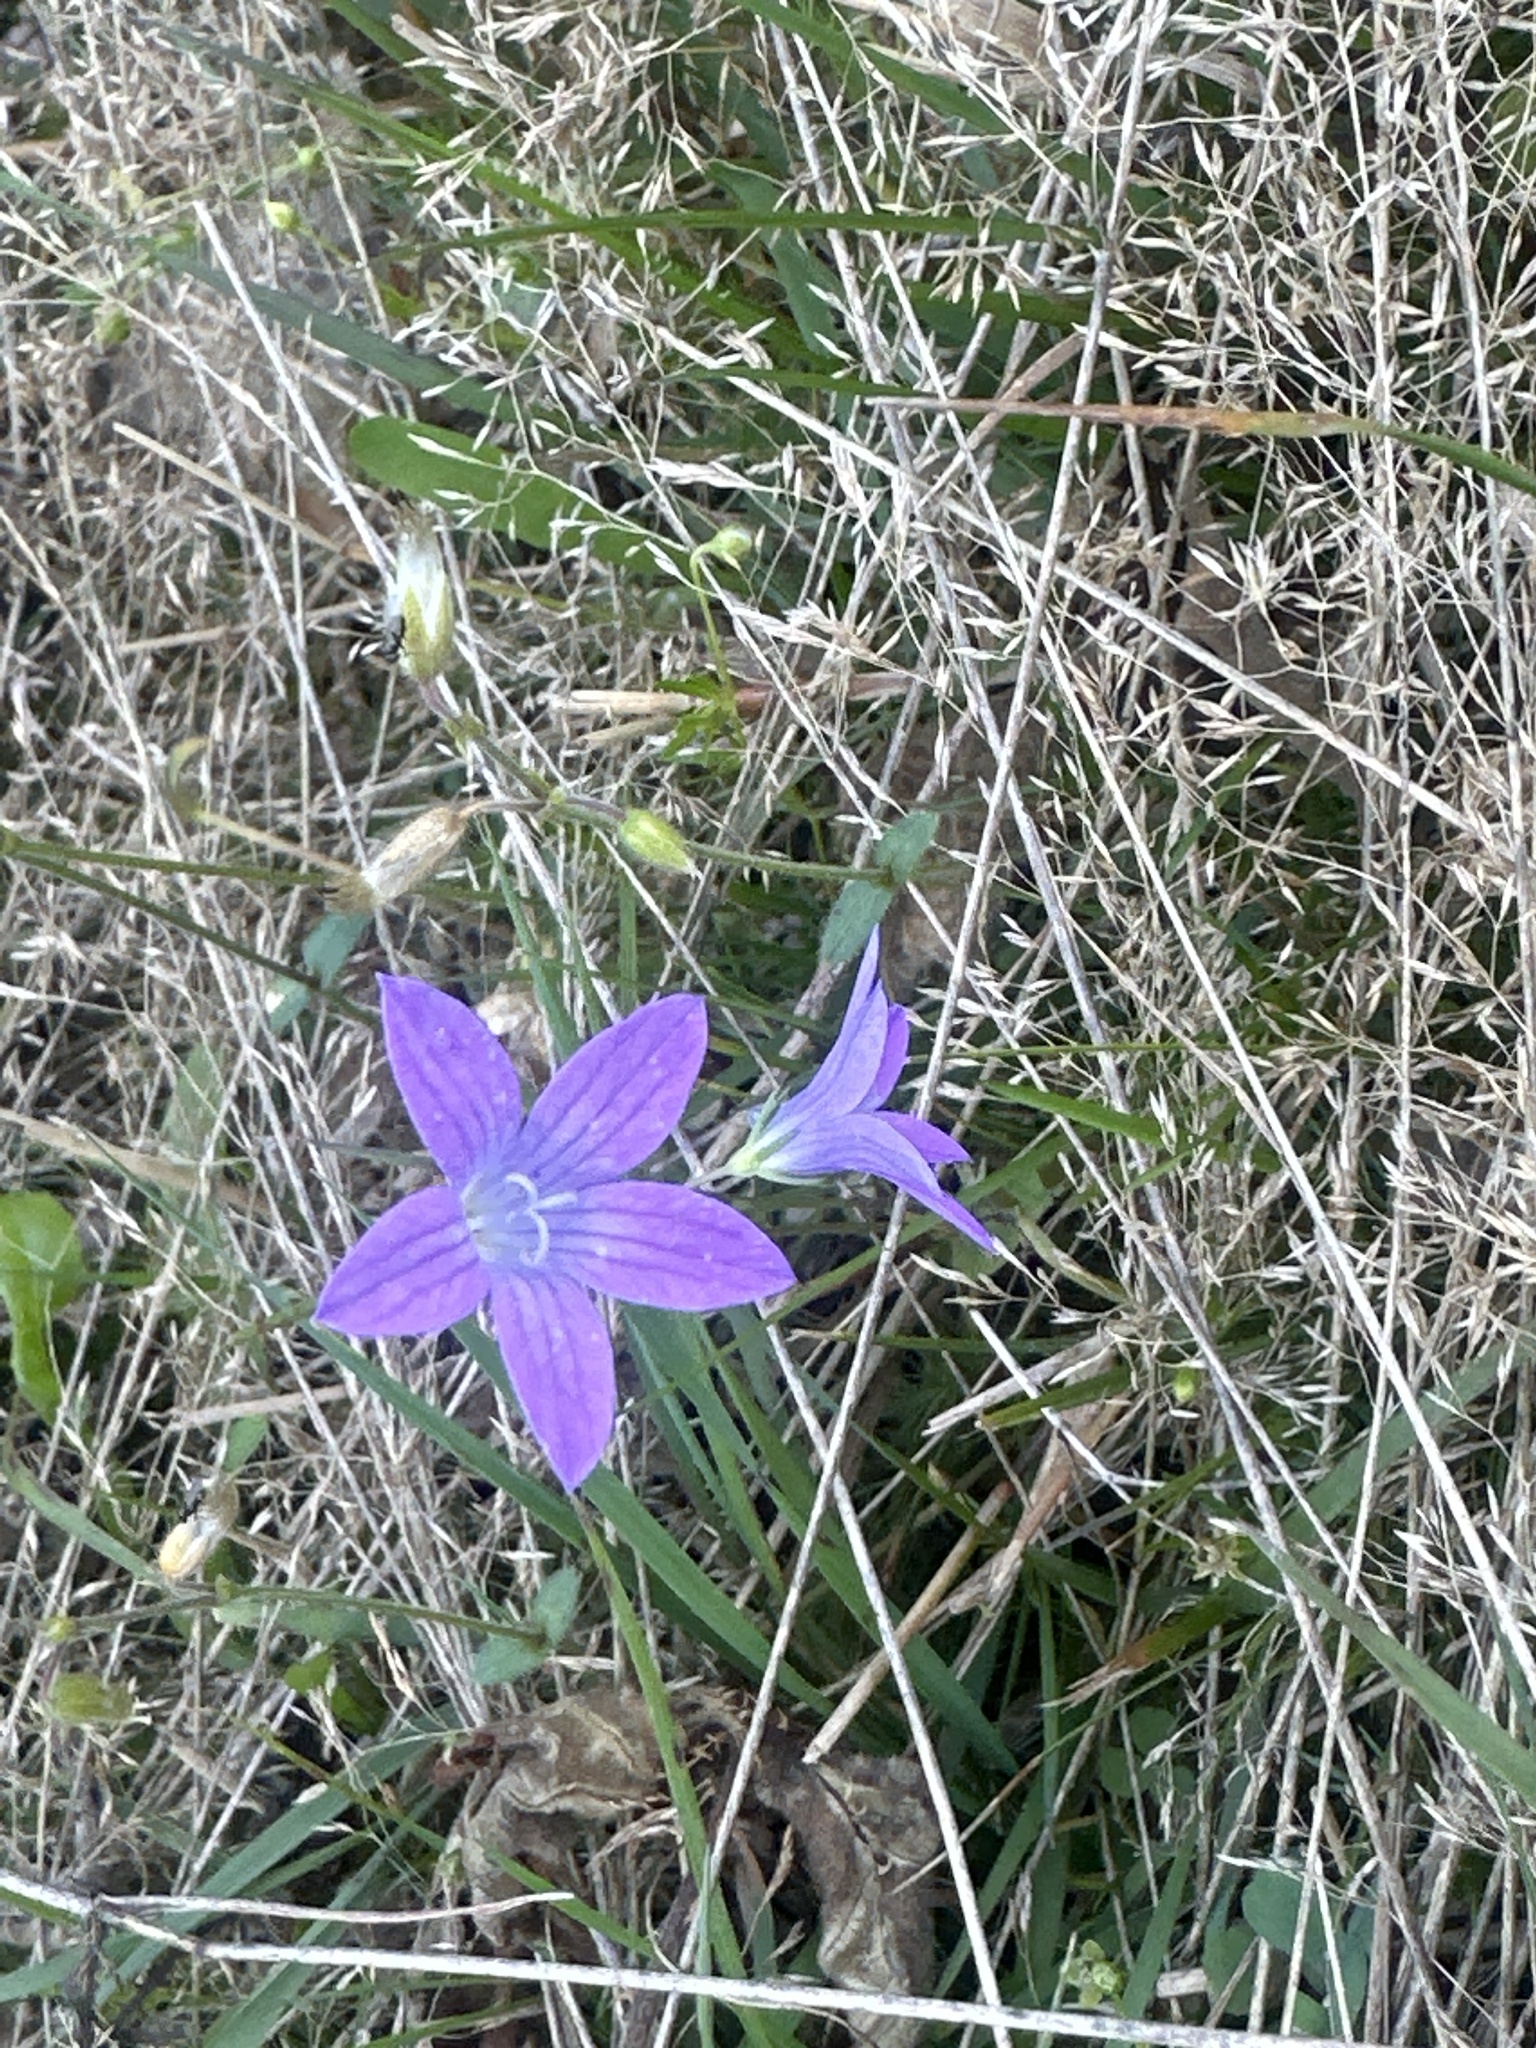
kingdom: Plantae
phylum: Tracheophyta
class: Magnoliopsida
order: Asterales
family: Campanulaceae
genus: Campanula
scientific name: Campanula patula
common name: Spreading bellflower
